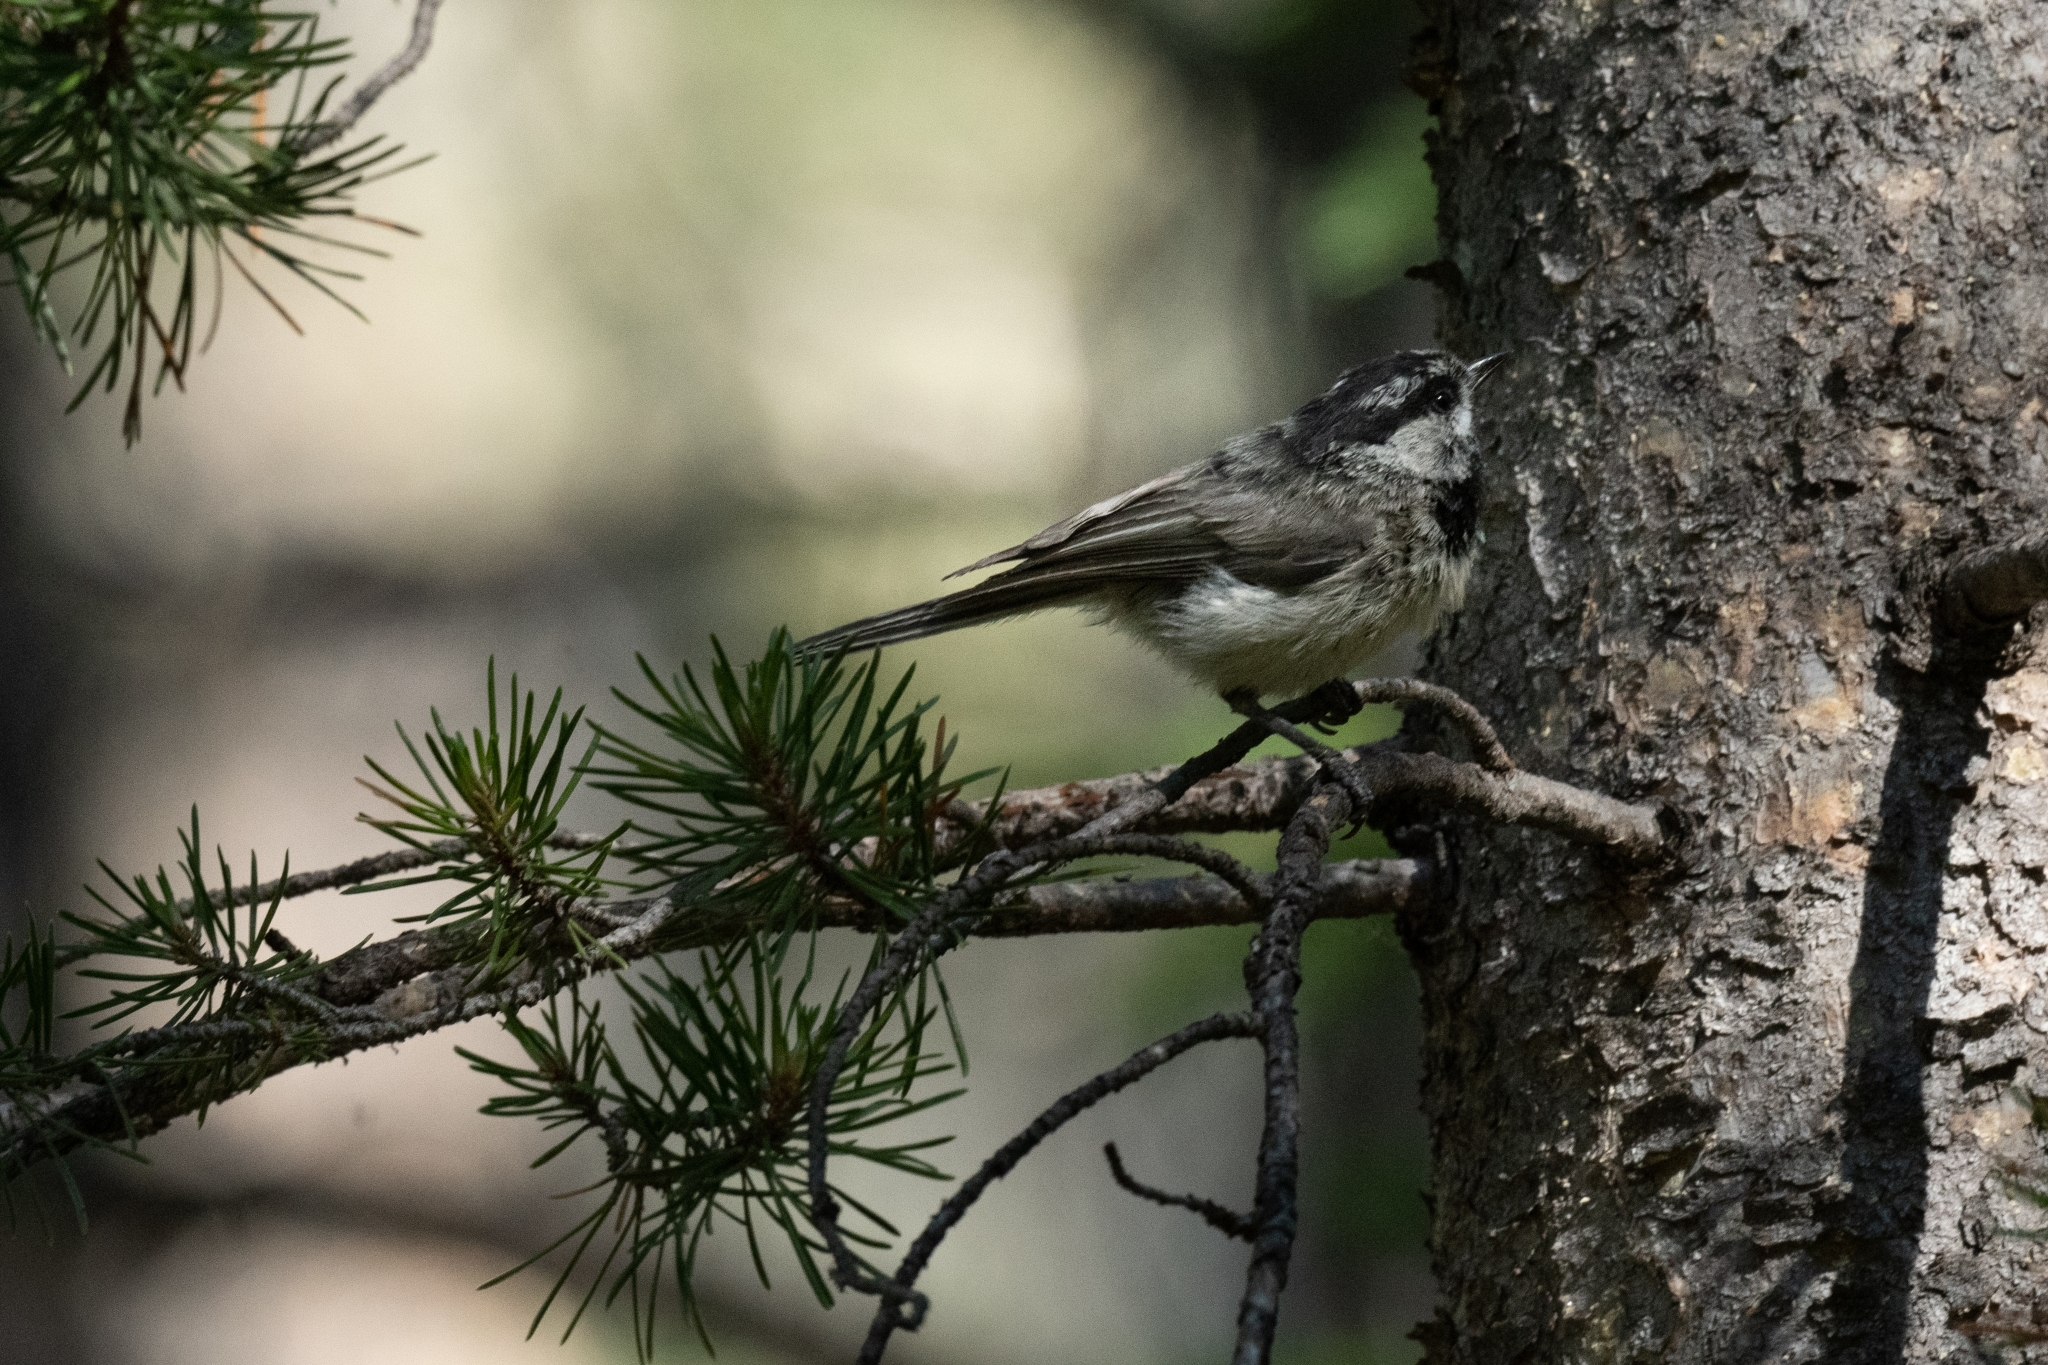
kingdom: Animalia
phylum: Chordata
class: Aves
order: Passeriformes
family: Paridae
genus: Poecile
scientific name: Poecile gambeli
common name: Mountain chickadee
